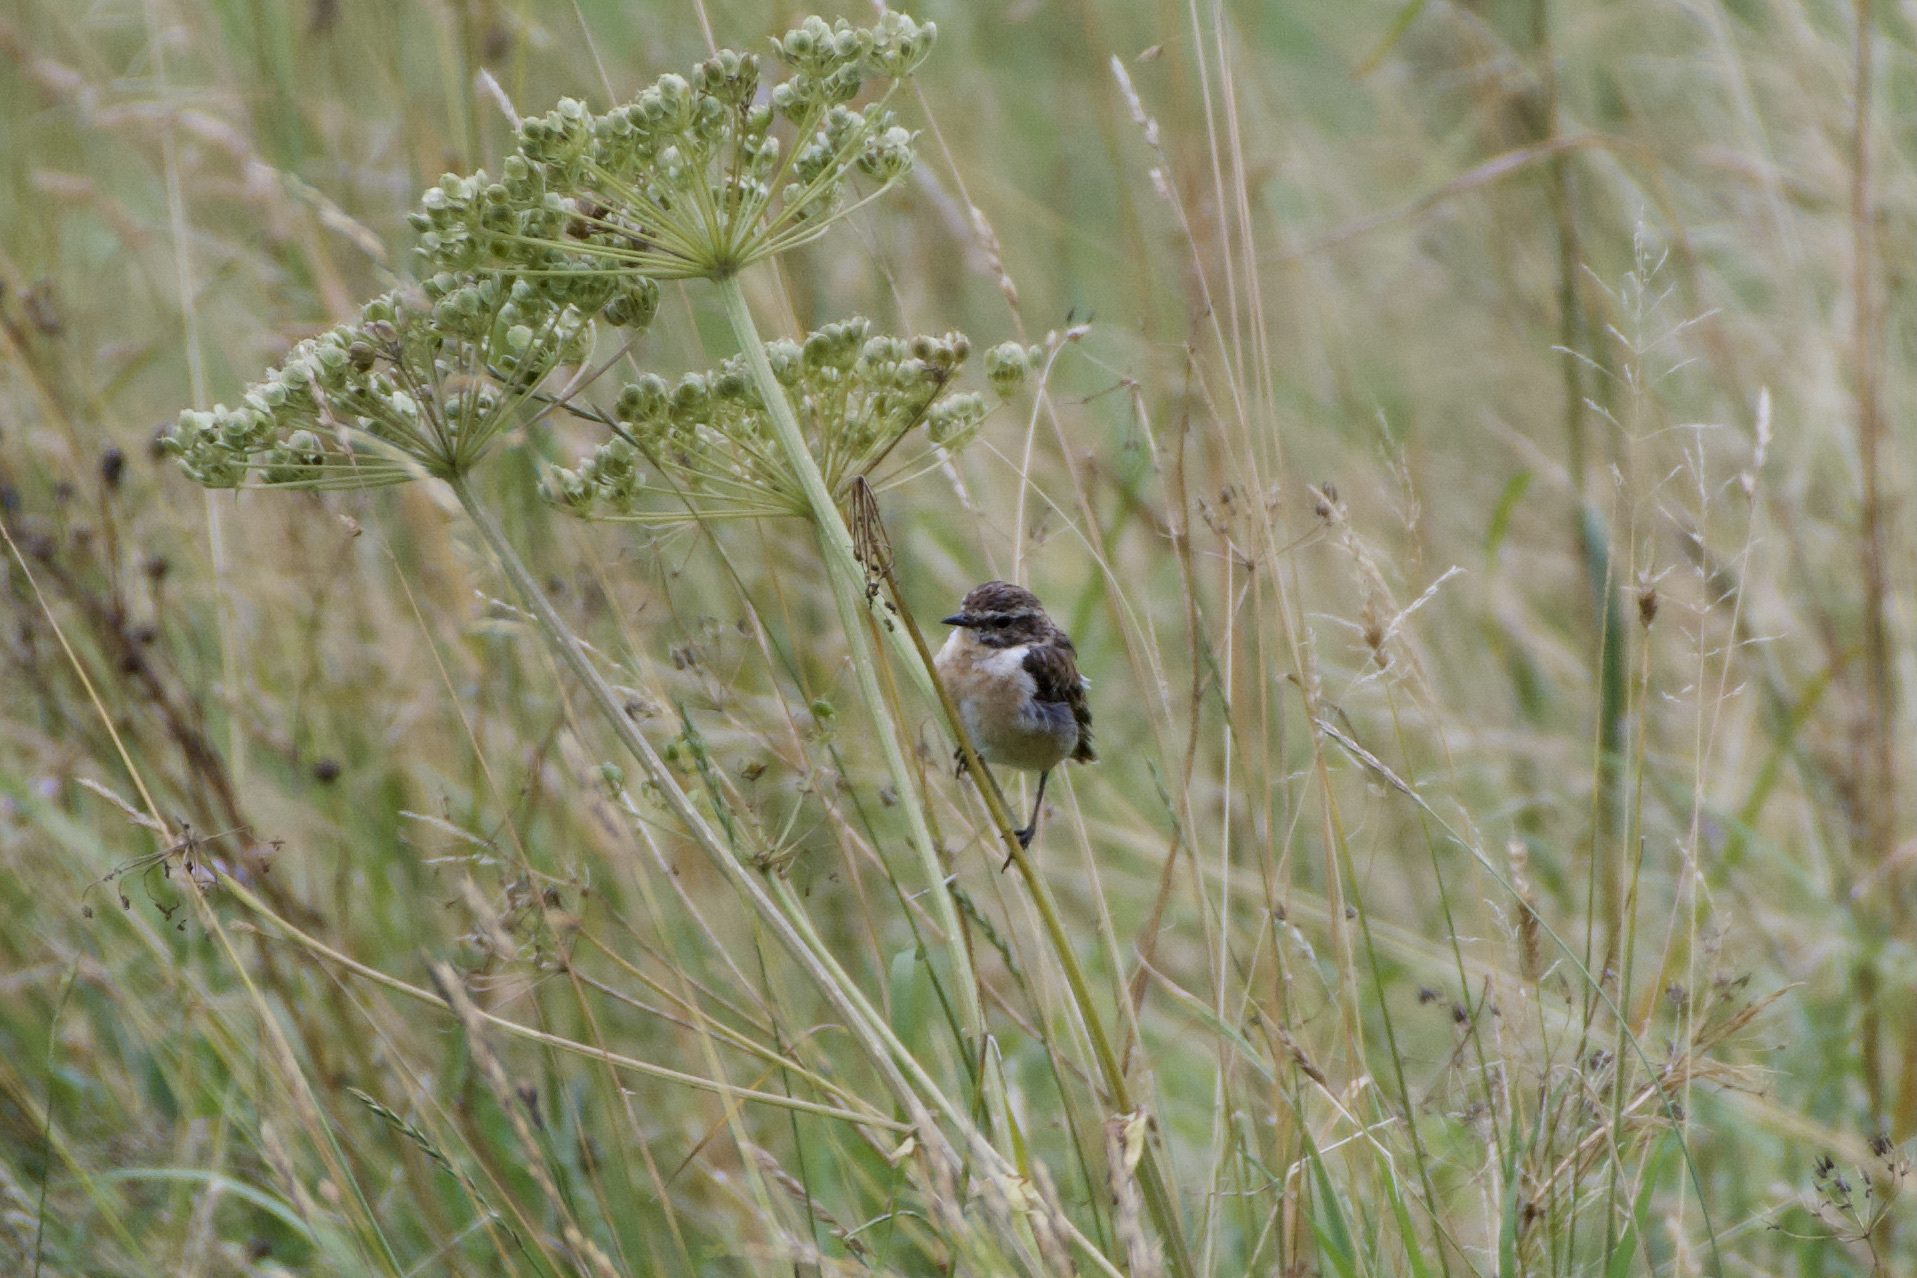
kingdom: Animalia
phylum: Chordata
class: Aves
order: Passeriformes
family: Muscicapidae
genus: Saxicola
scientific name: Saxicola rubetra
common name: Whinchat
